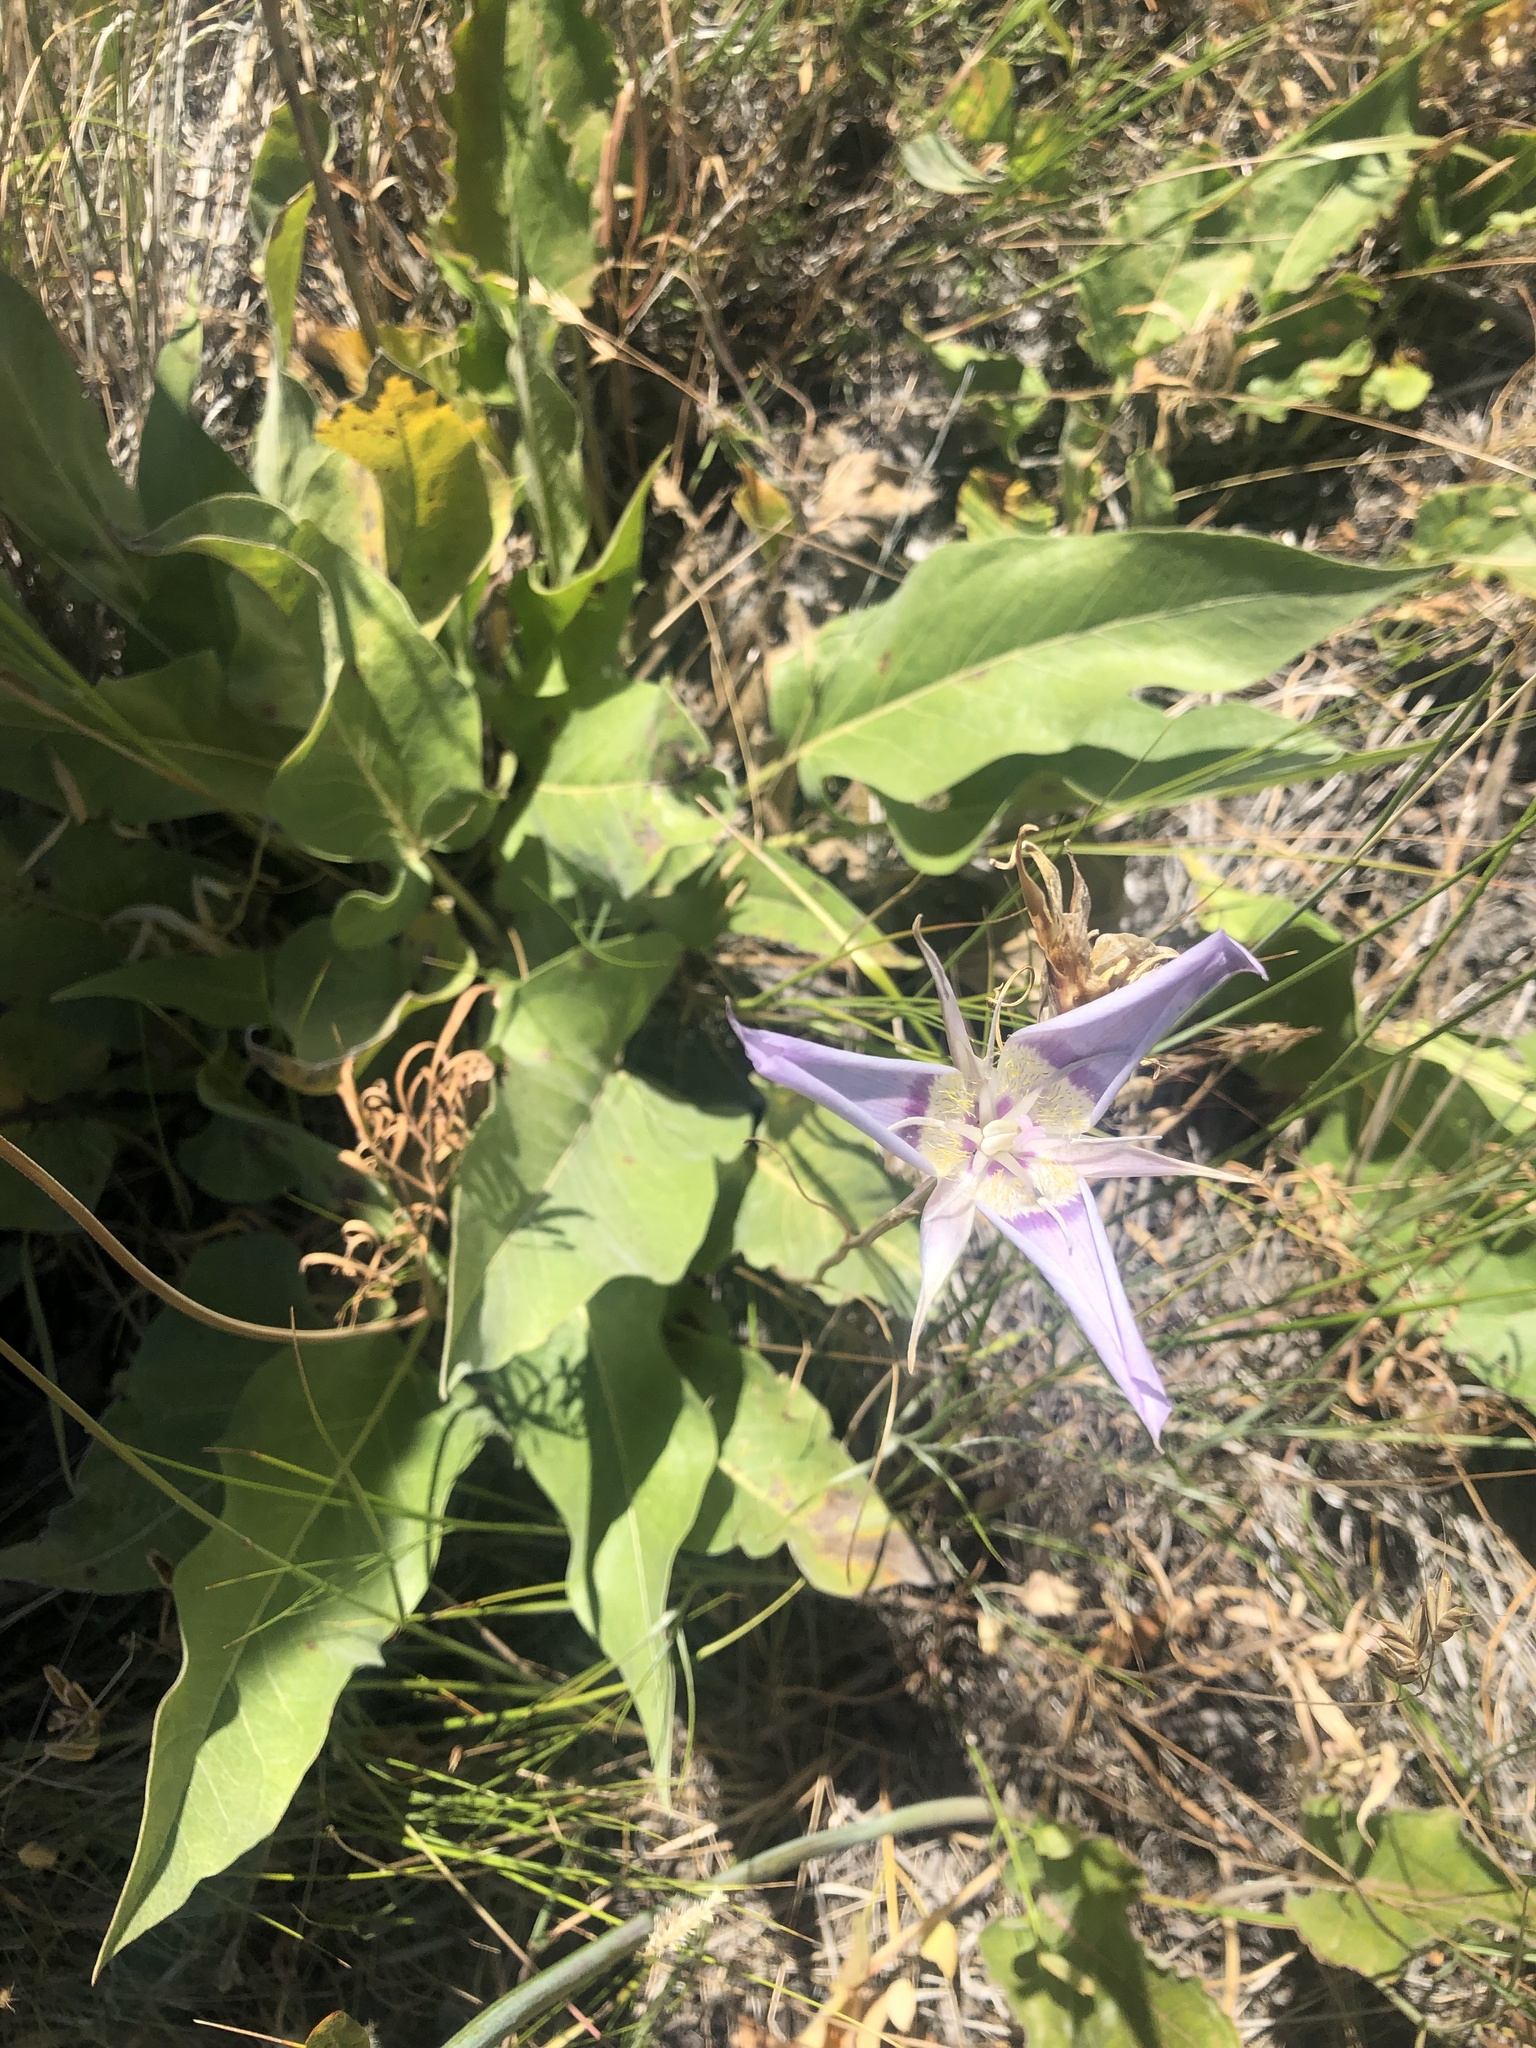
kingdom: Plantae
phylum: Tracheophyta
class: Liliopsida
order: Liliales
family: Liliaceae
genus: Calochortus
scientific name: Calochortus macrocarpus
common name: Green-band mariposa lily
